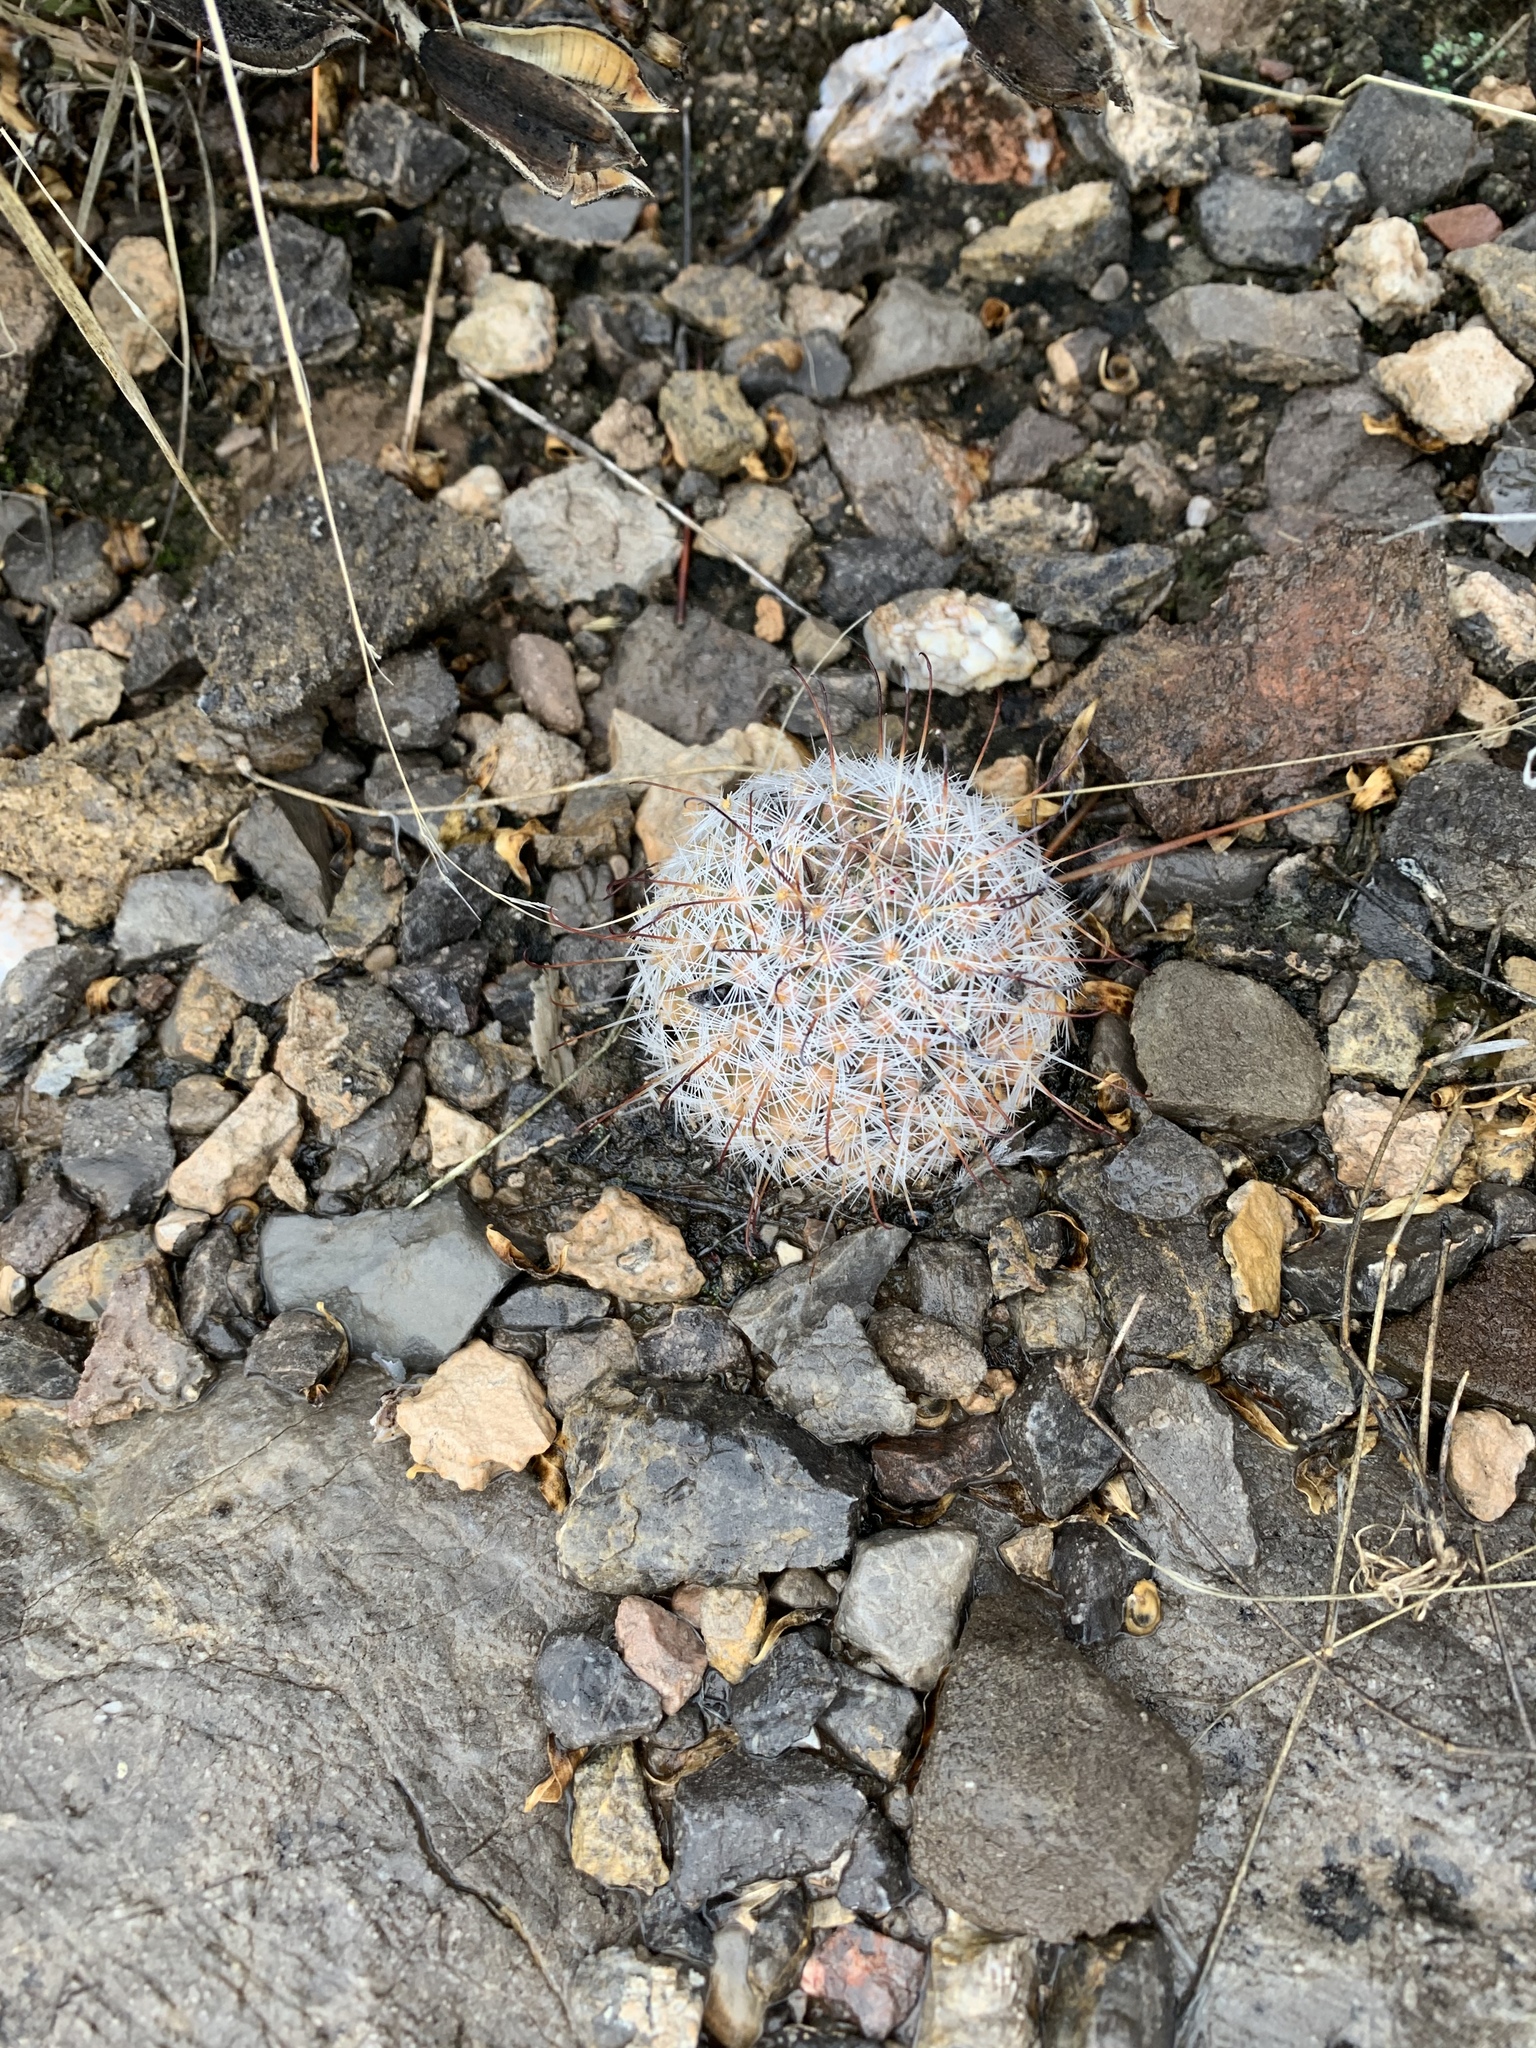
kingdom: Plantae
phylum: Tracheophyta
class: Magnoliopsida
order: Caryophyllales
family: Cactaceae
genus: Cochemiea
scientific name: Cochemiea grahamii
